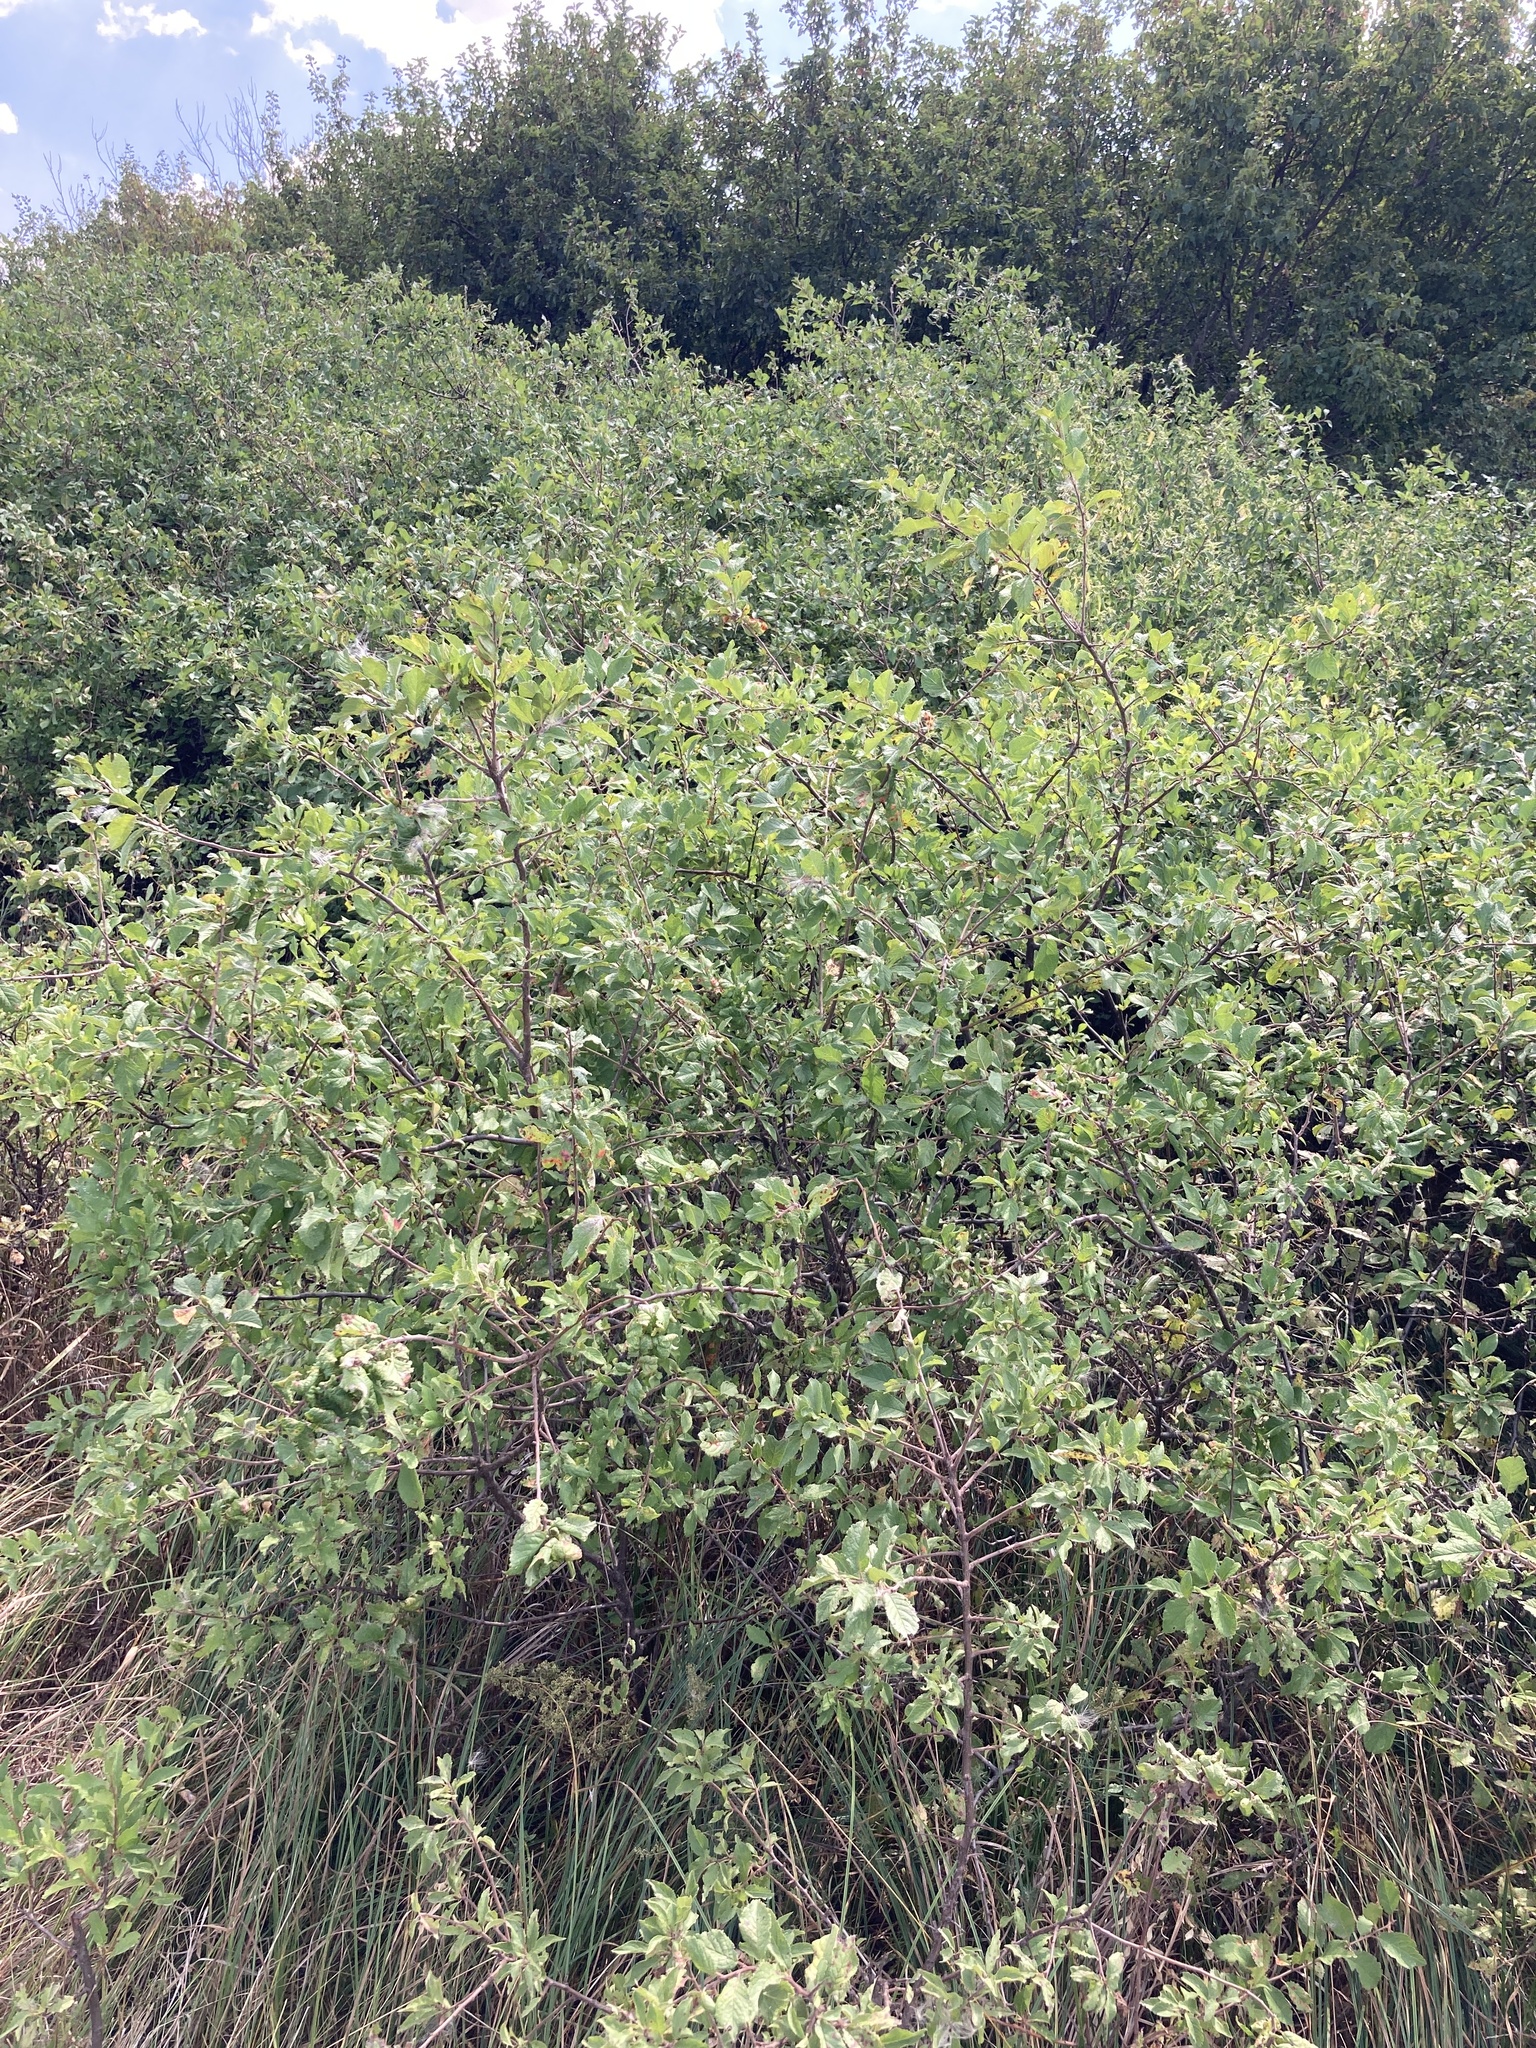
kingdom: Plantae
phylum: Tracheophyta
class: Magnoliopsida
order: Rosales
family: Rosaceae
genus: Prunus
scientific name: Prunus spinosa
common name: Blackthorn
